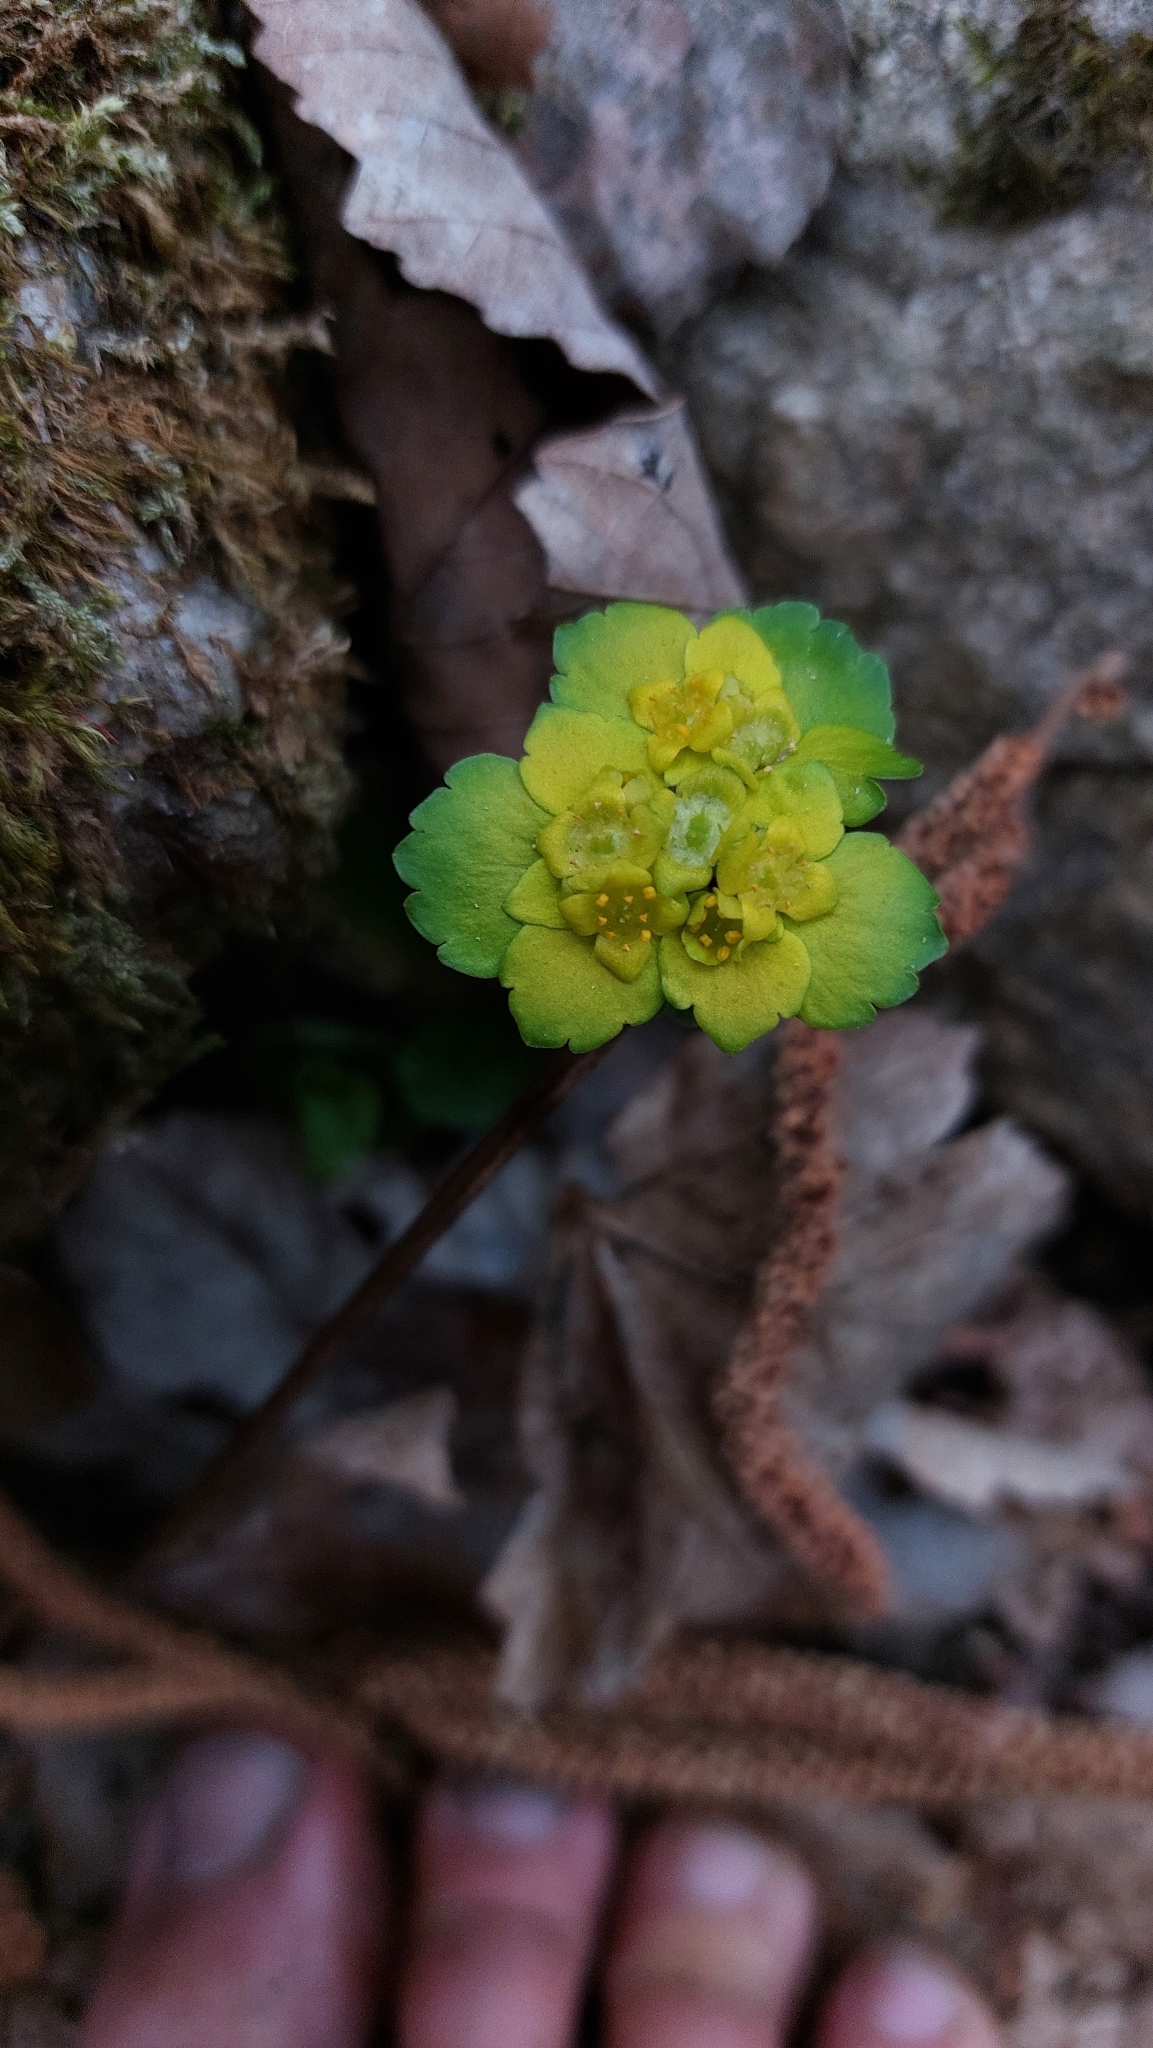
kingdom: Plantae
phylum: Tracheophyta
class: Magnoliopsida
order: Saxifragales
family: Saxifragaceae
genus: Chrysosplenium
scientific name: Chrysosplenium alternifolium
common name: Alternate-leaved golden-saxifrage
